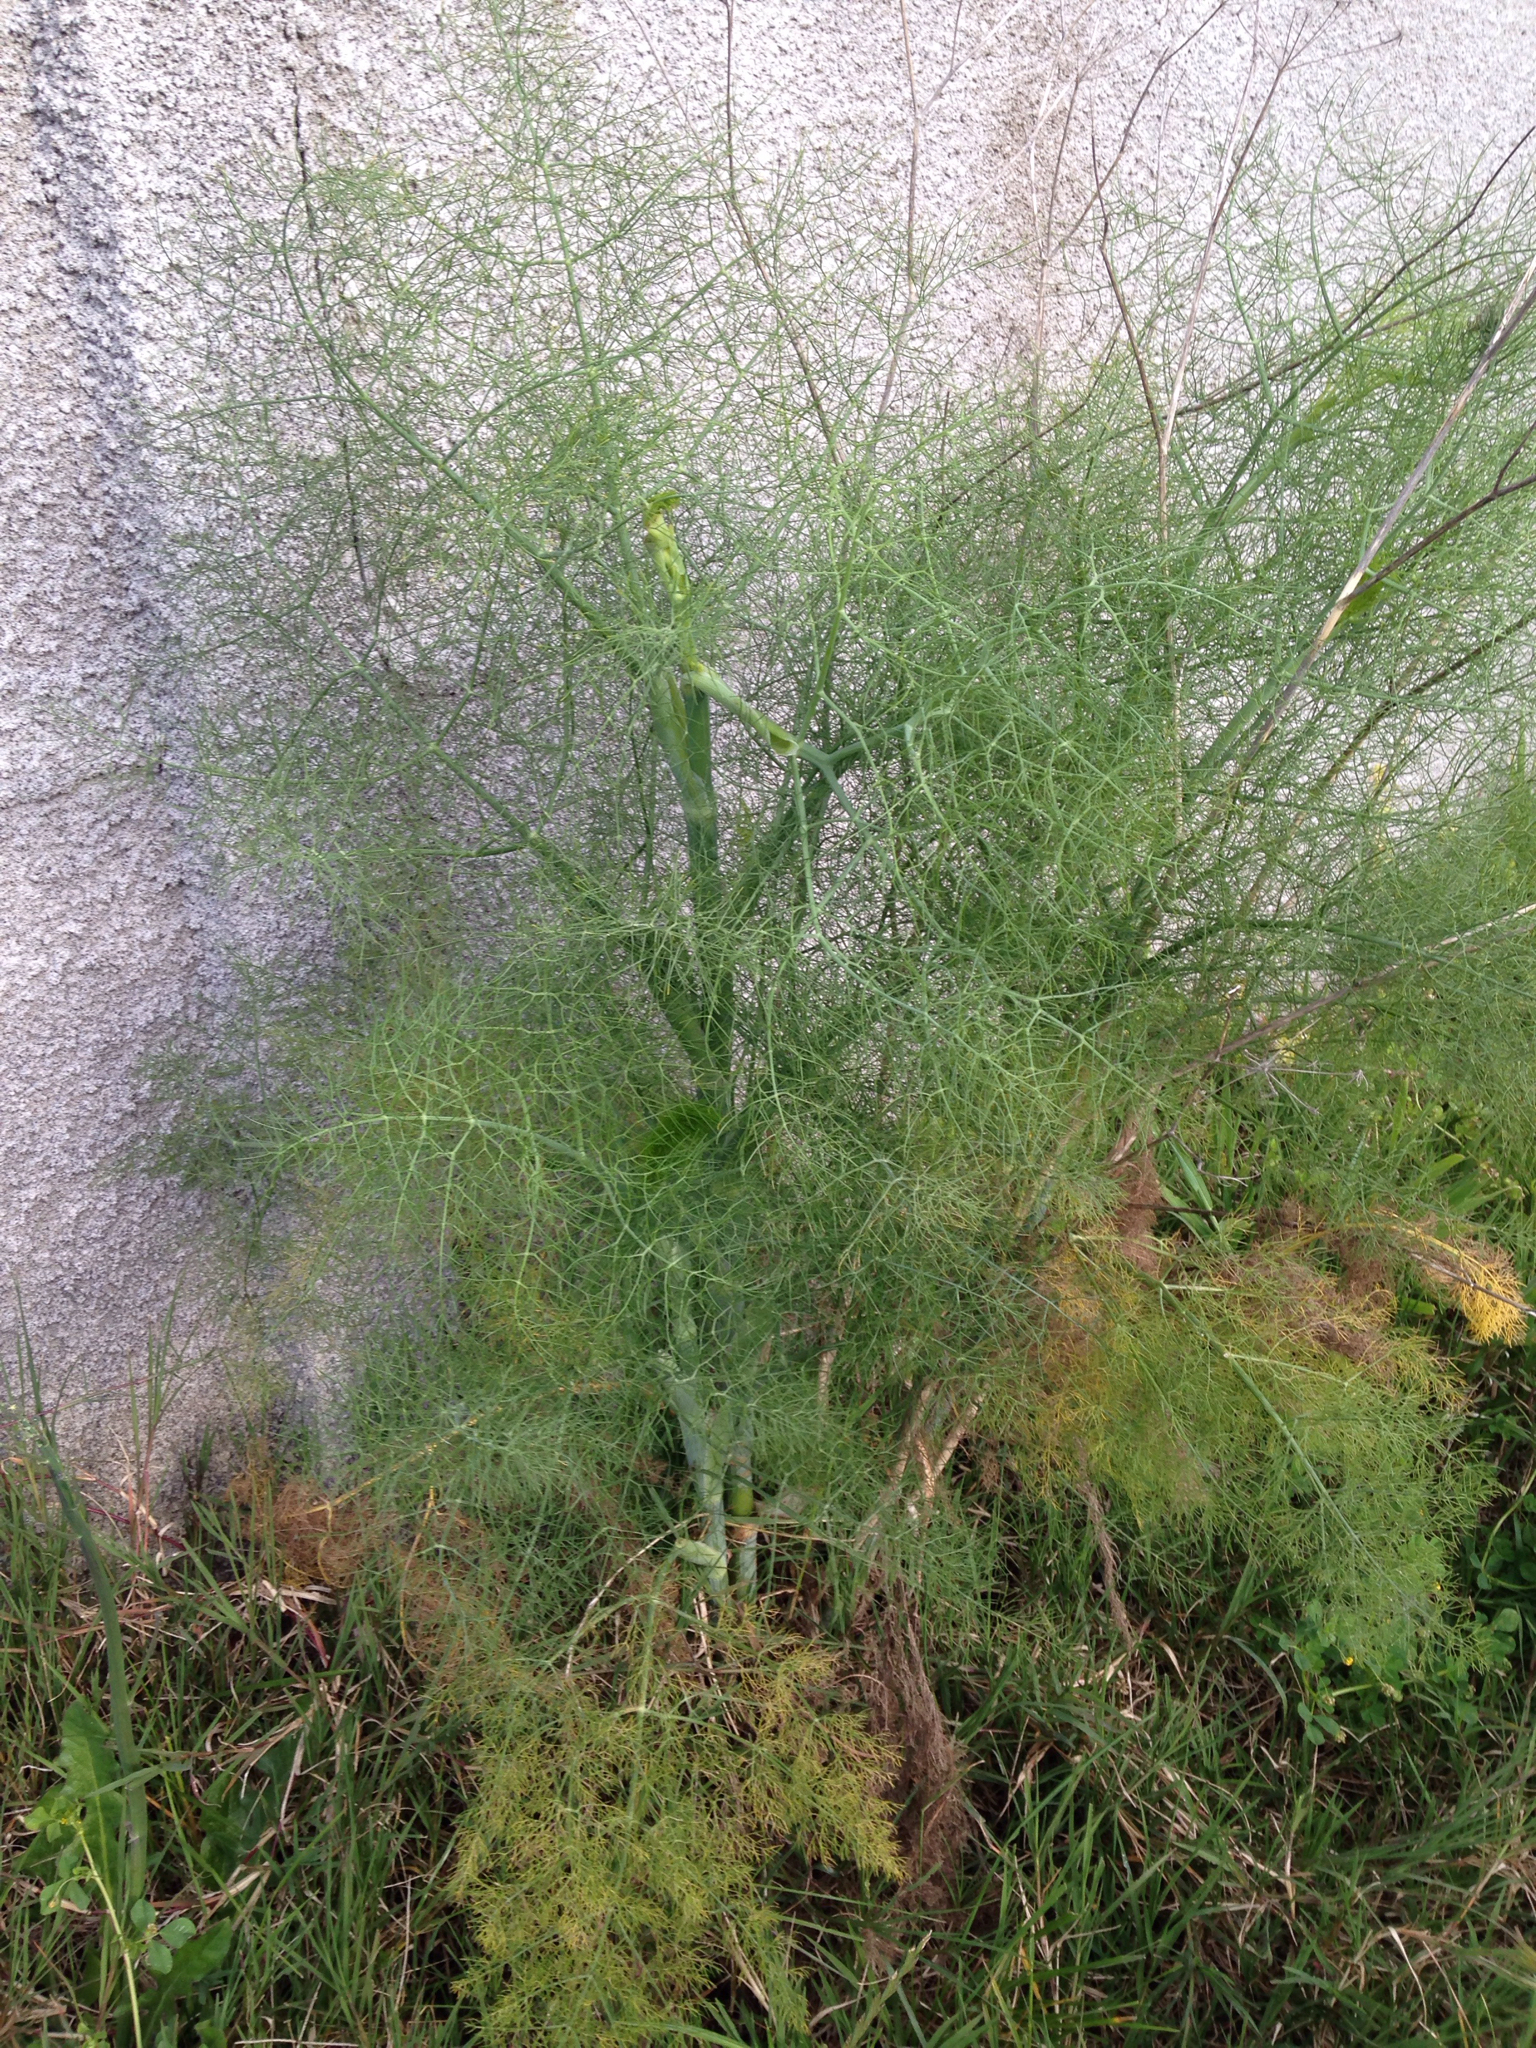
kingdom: Plantae
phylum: Tracheophyta
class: Magnoliopsida
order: Apiales
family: Apiaceae
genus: Foeniculum
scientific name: Foeniculum vulgare
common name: Fennel
